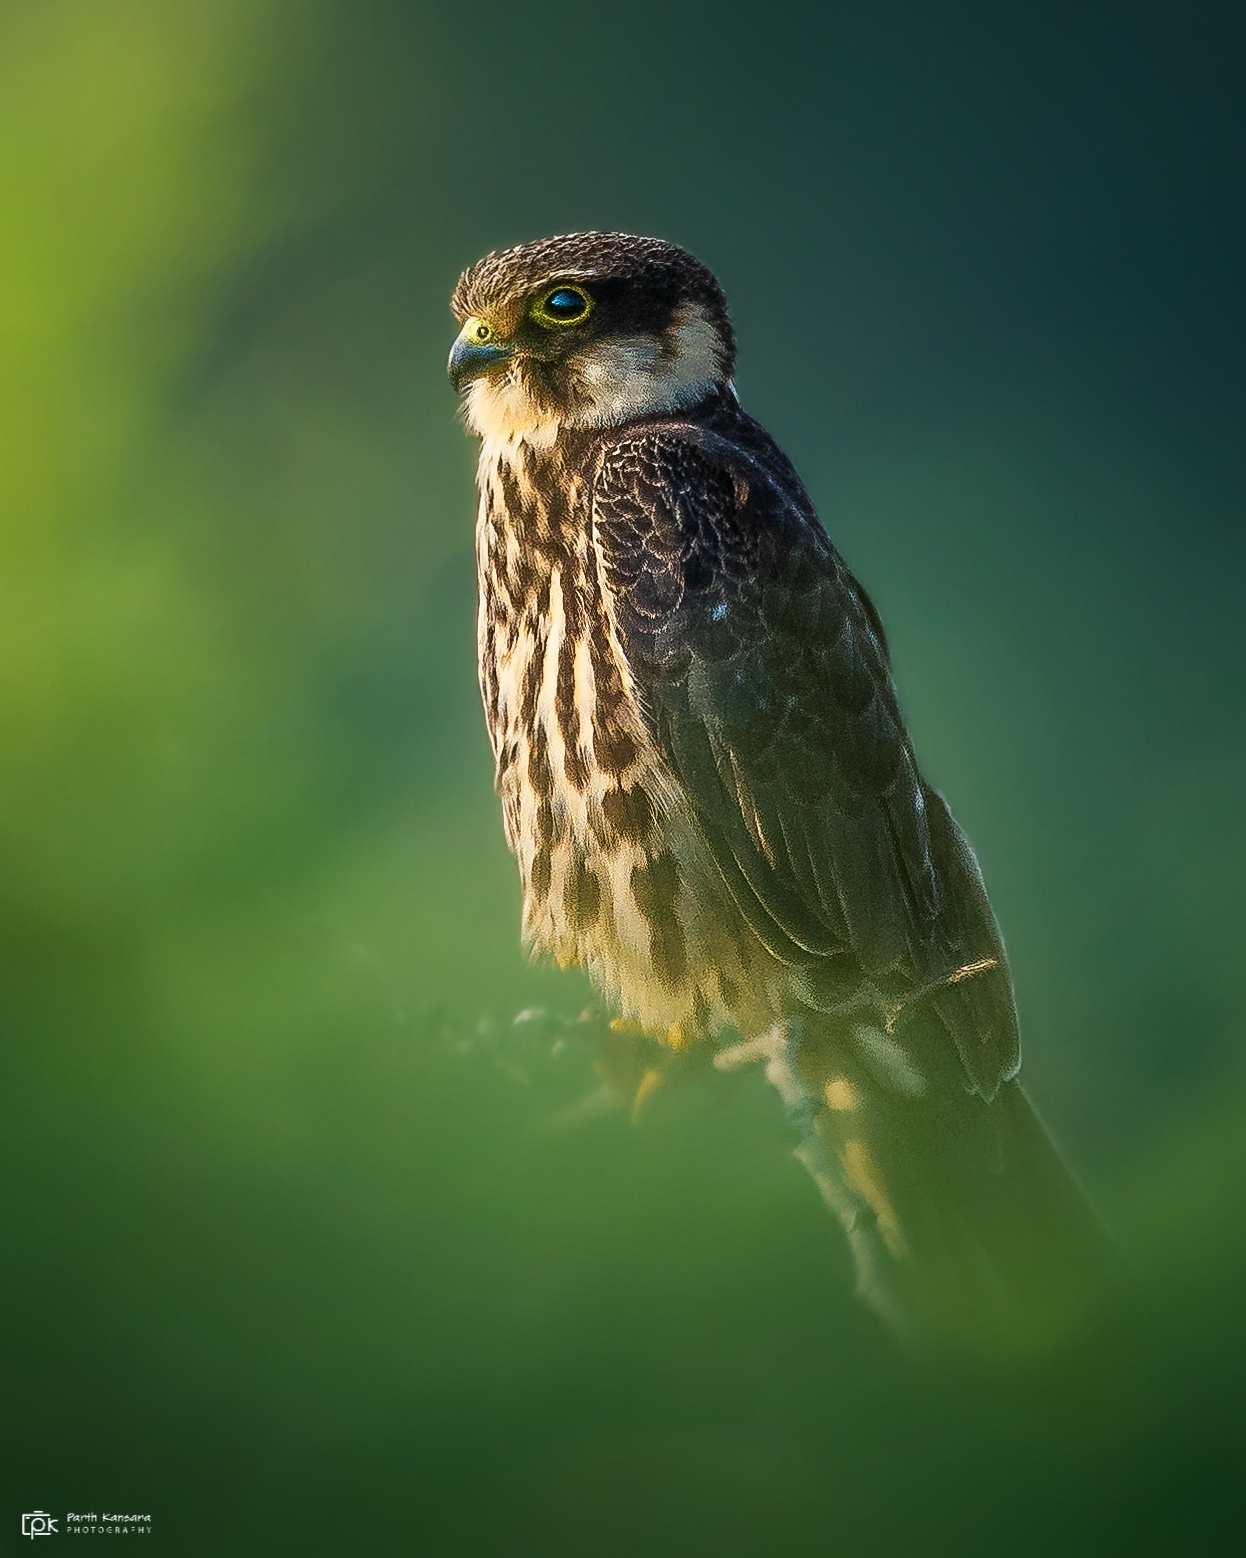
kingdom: Animalia
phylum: Chordata
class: Aves
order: Falconiformes
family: Falconidae
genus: Falco
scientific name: Falco subbuteo
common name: Eurasian hobby
